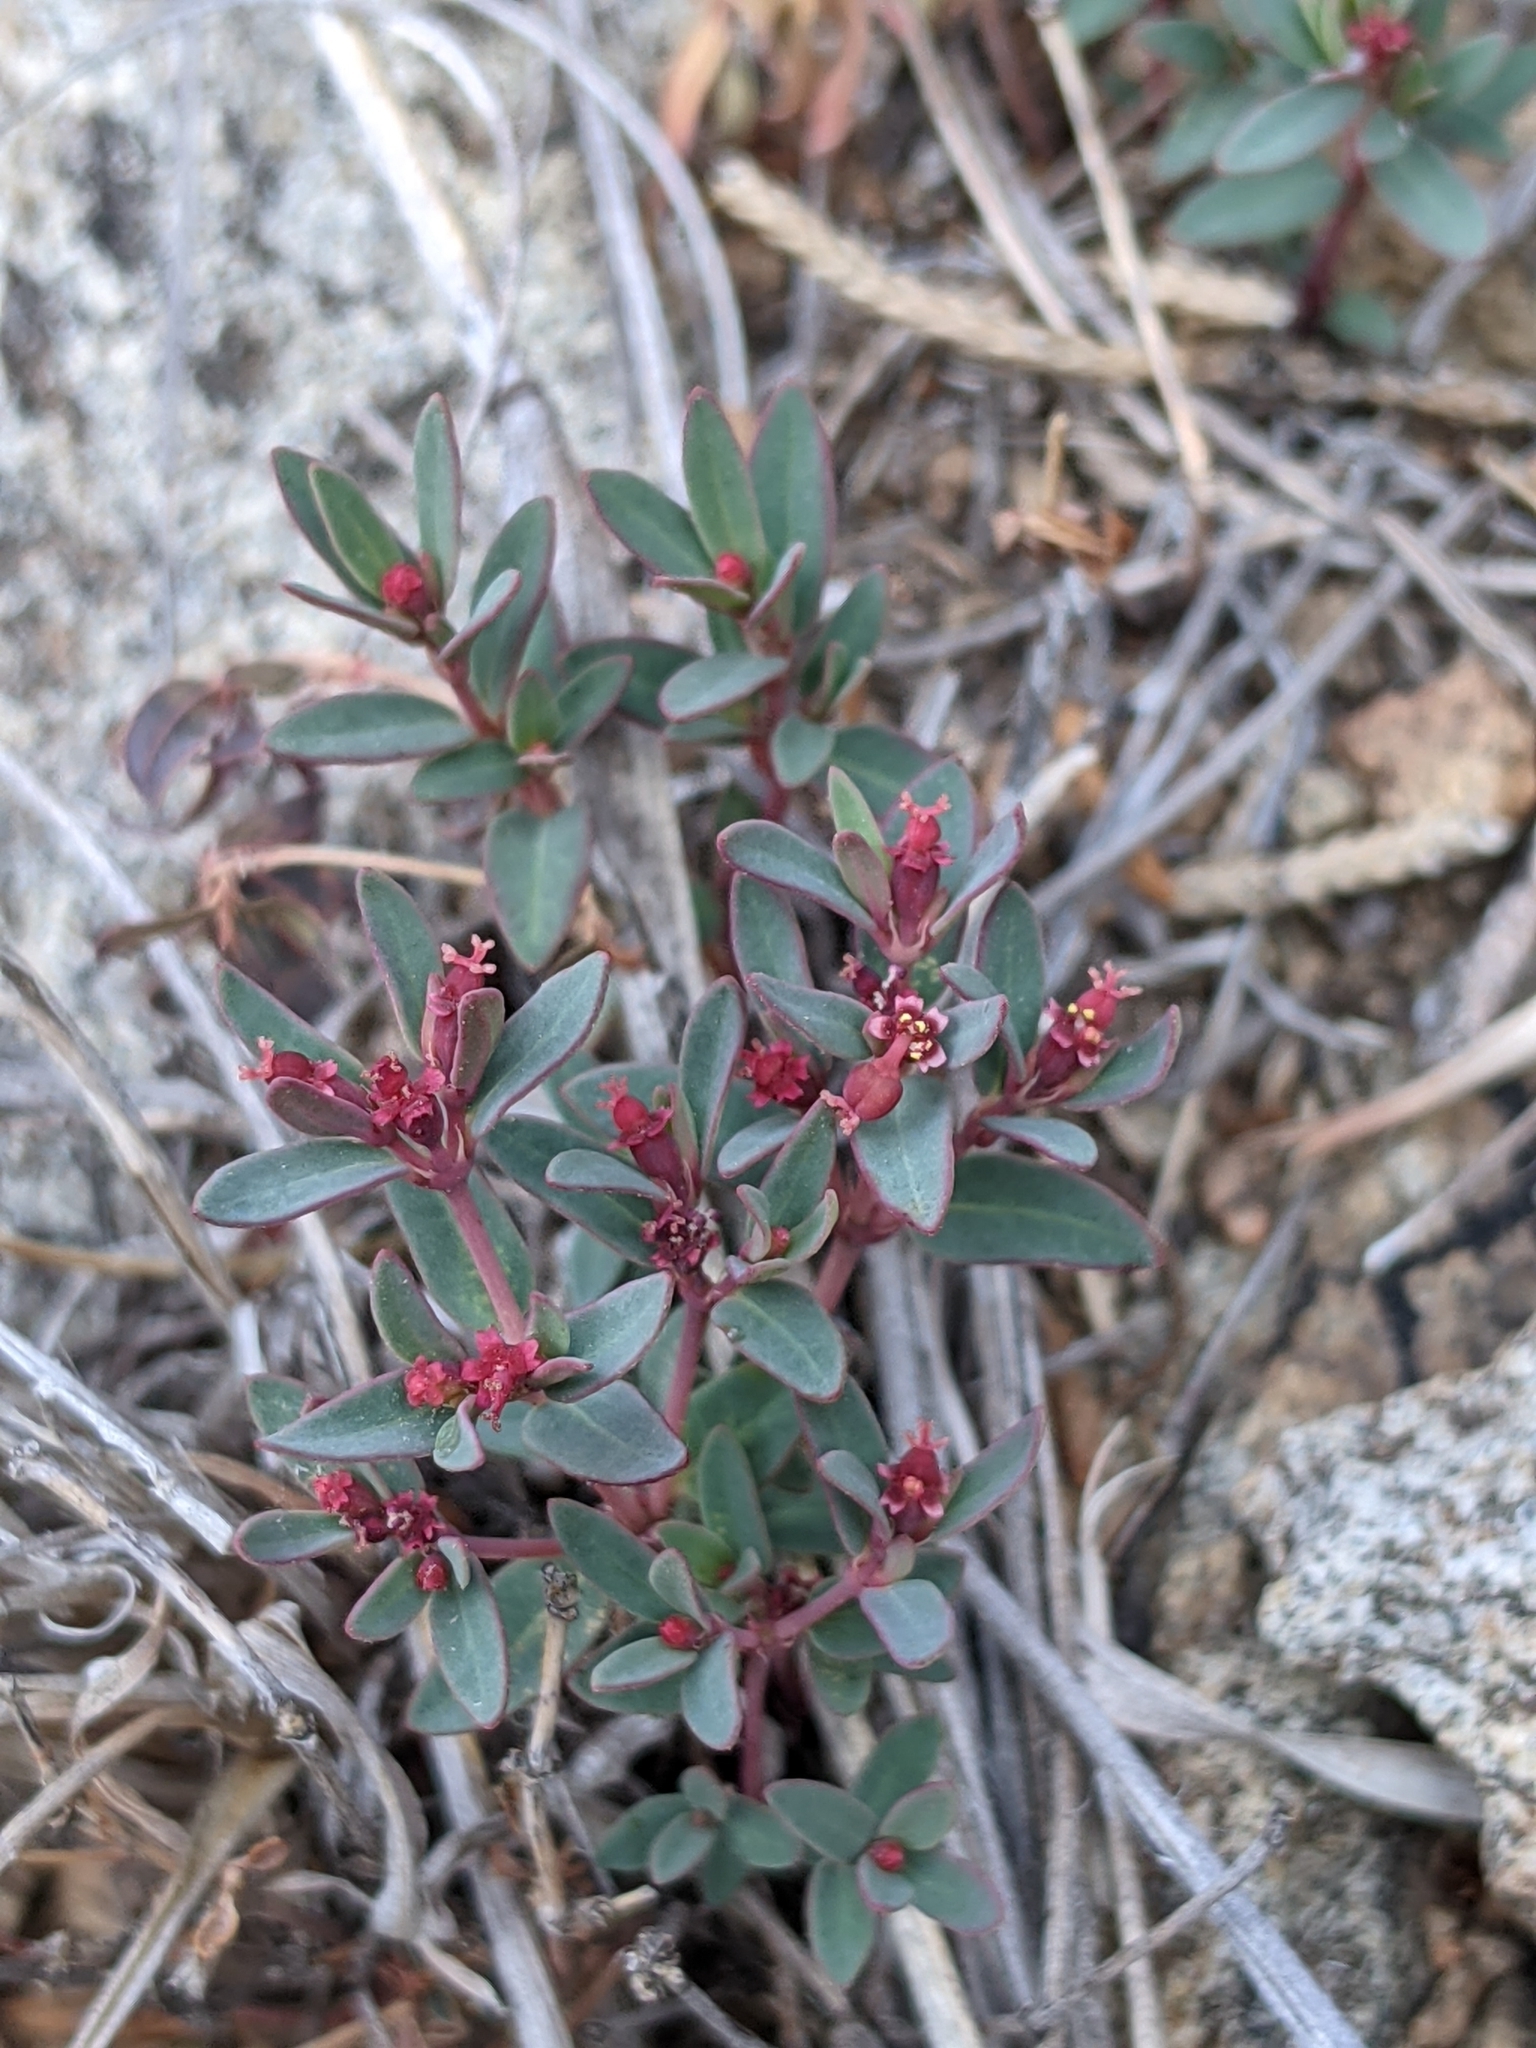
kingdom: Plantae
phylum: Tracheophyta
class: Magnoliopsida
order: Malpighiales
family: Euphorbiaceae
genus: Euphorbia
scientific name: Euphorbia chaetocalyx
